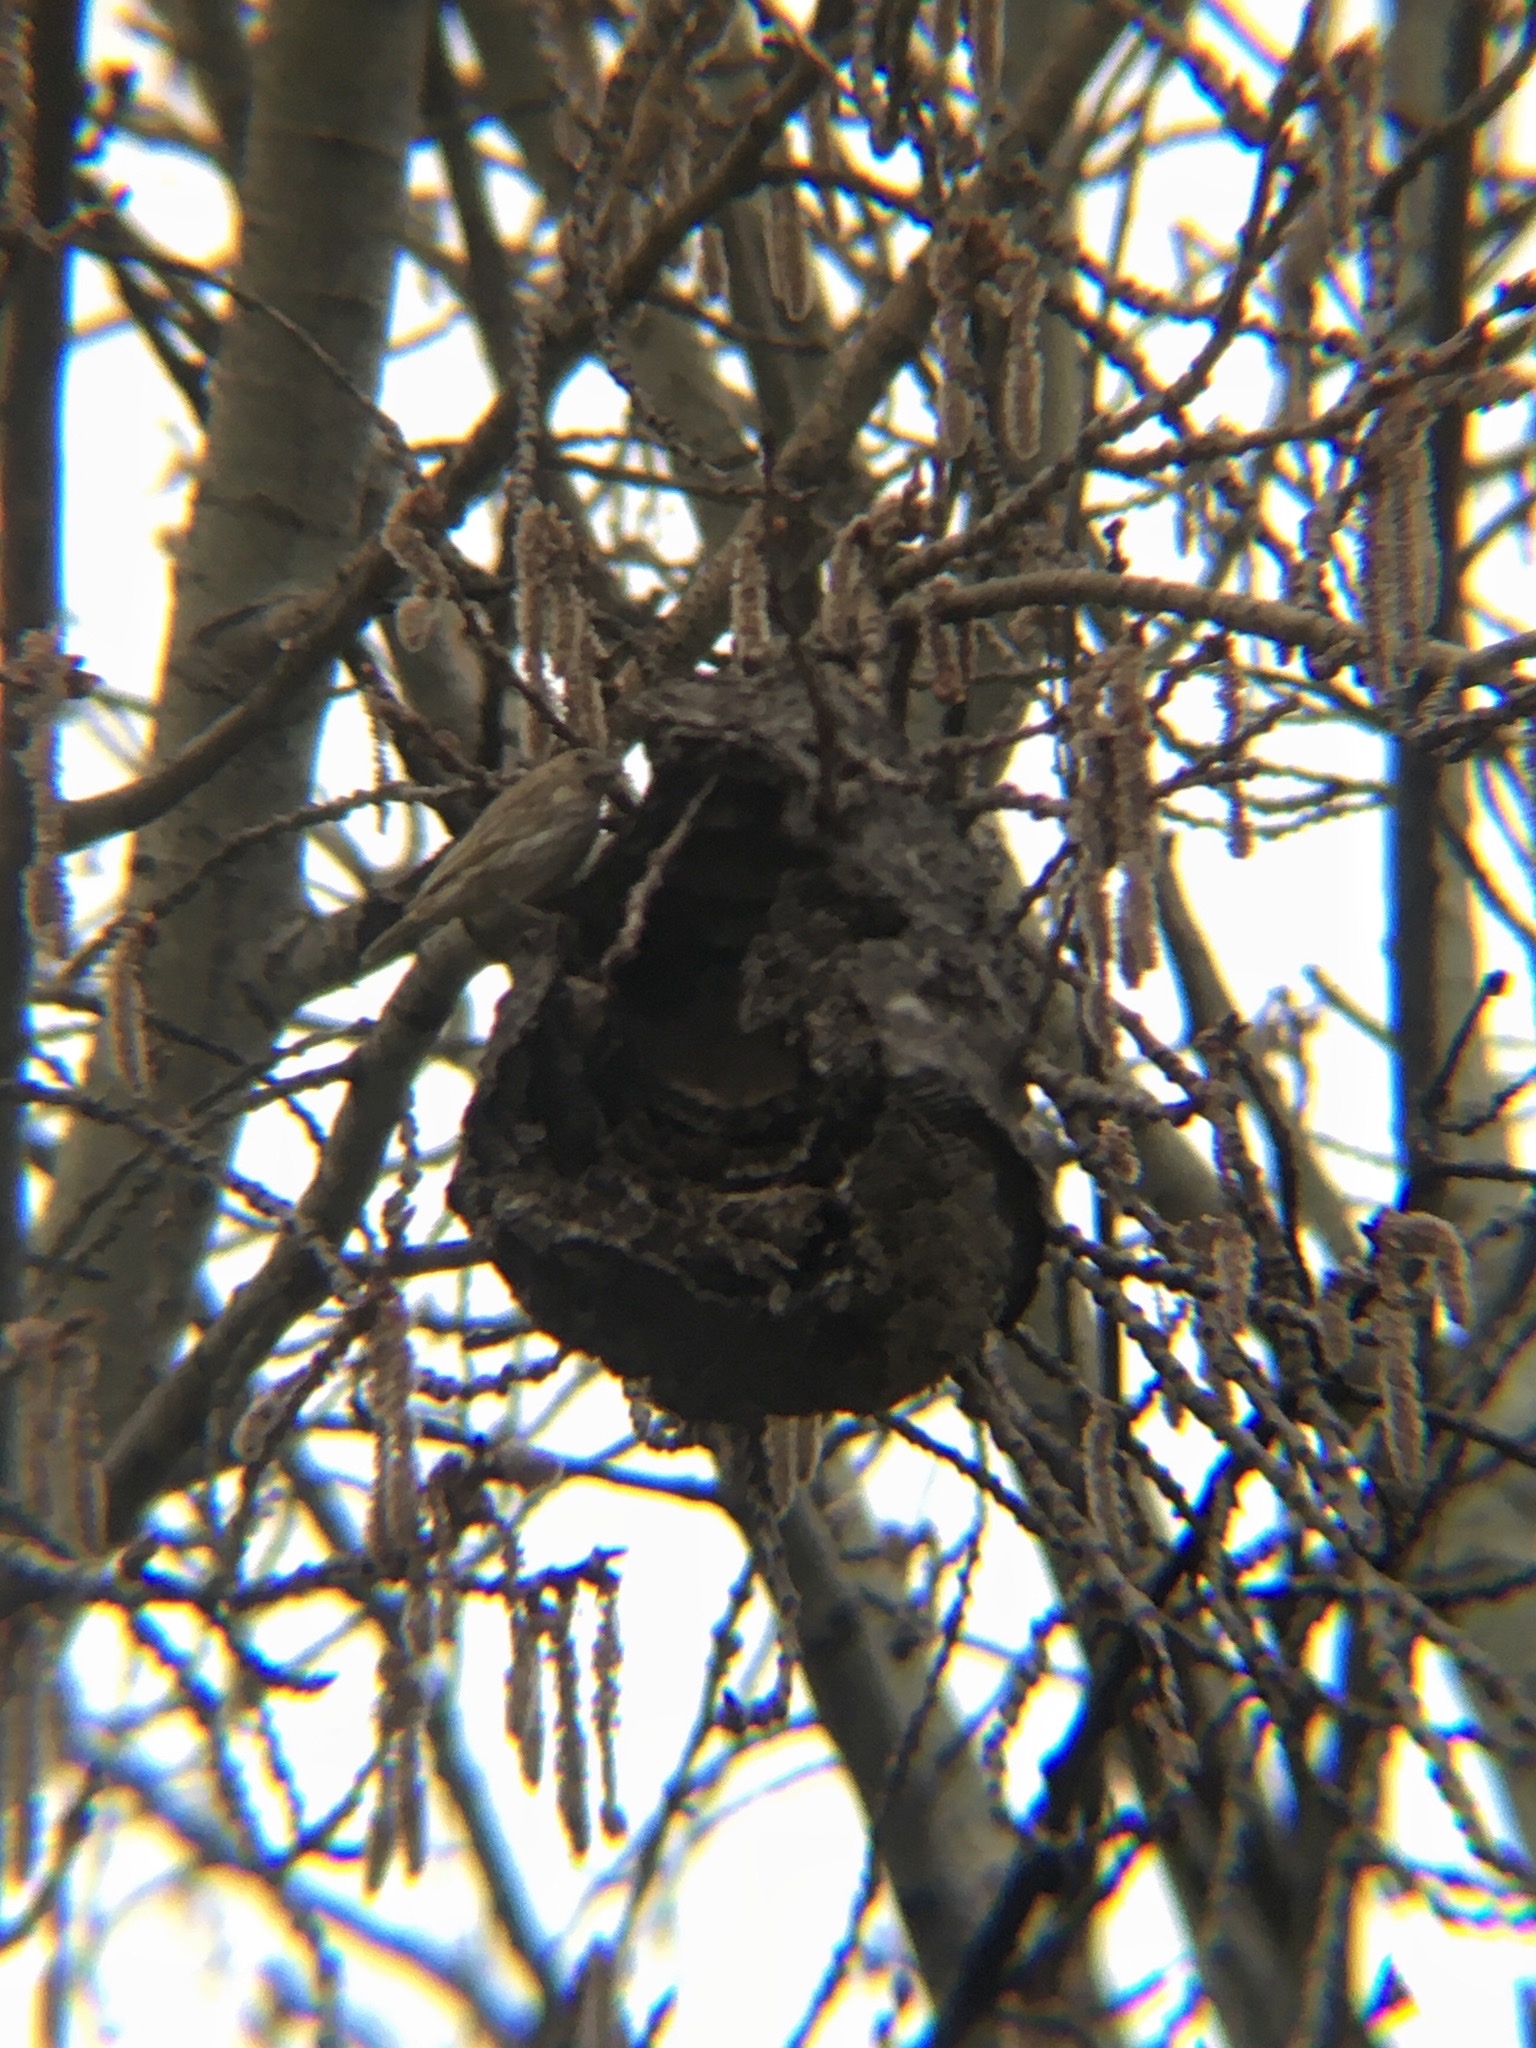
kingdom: Animalia
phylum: Chordata
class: Aves
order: Passeriformes
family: Thraupidae
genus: Sicalis
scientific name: Sicalis flaveola
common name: Saffron finch
